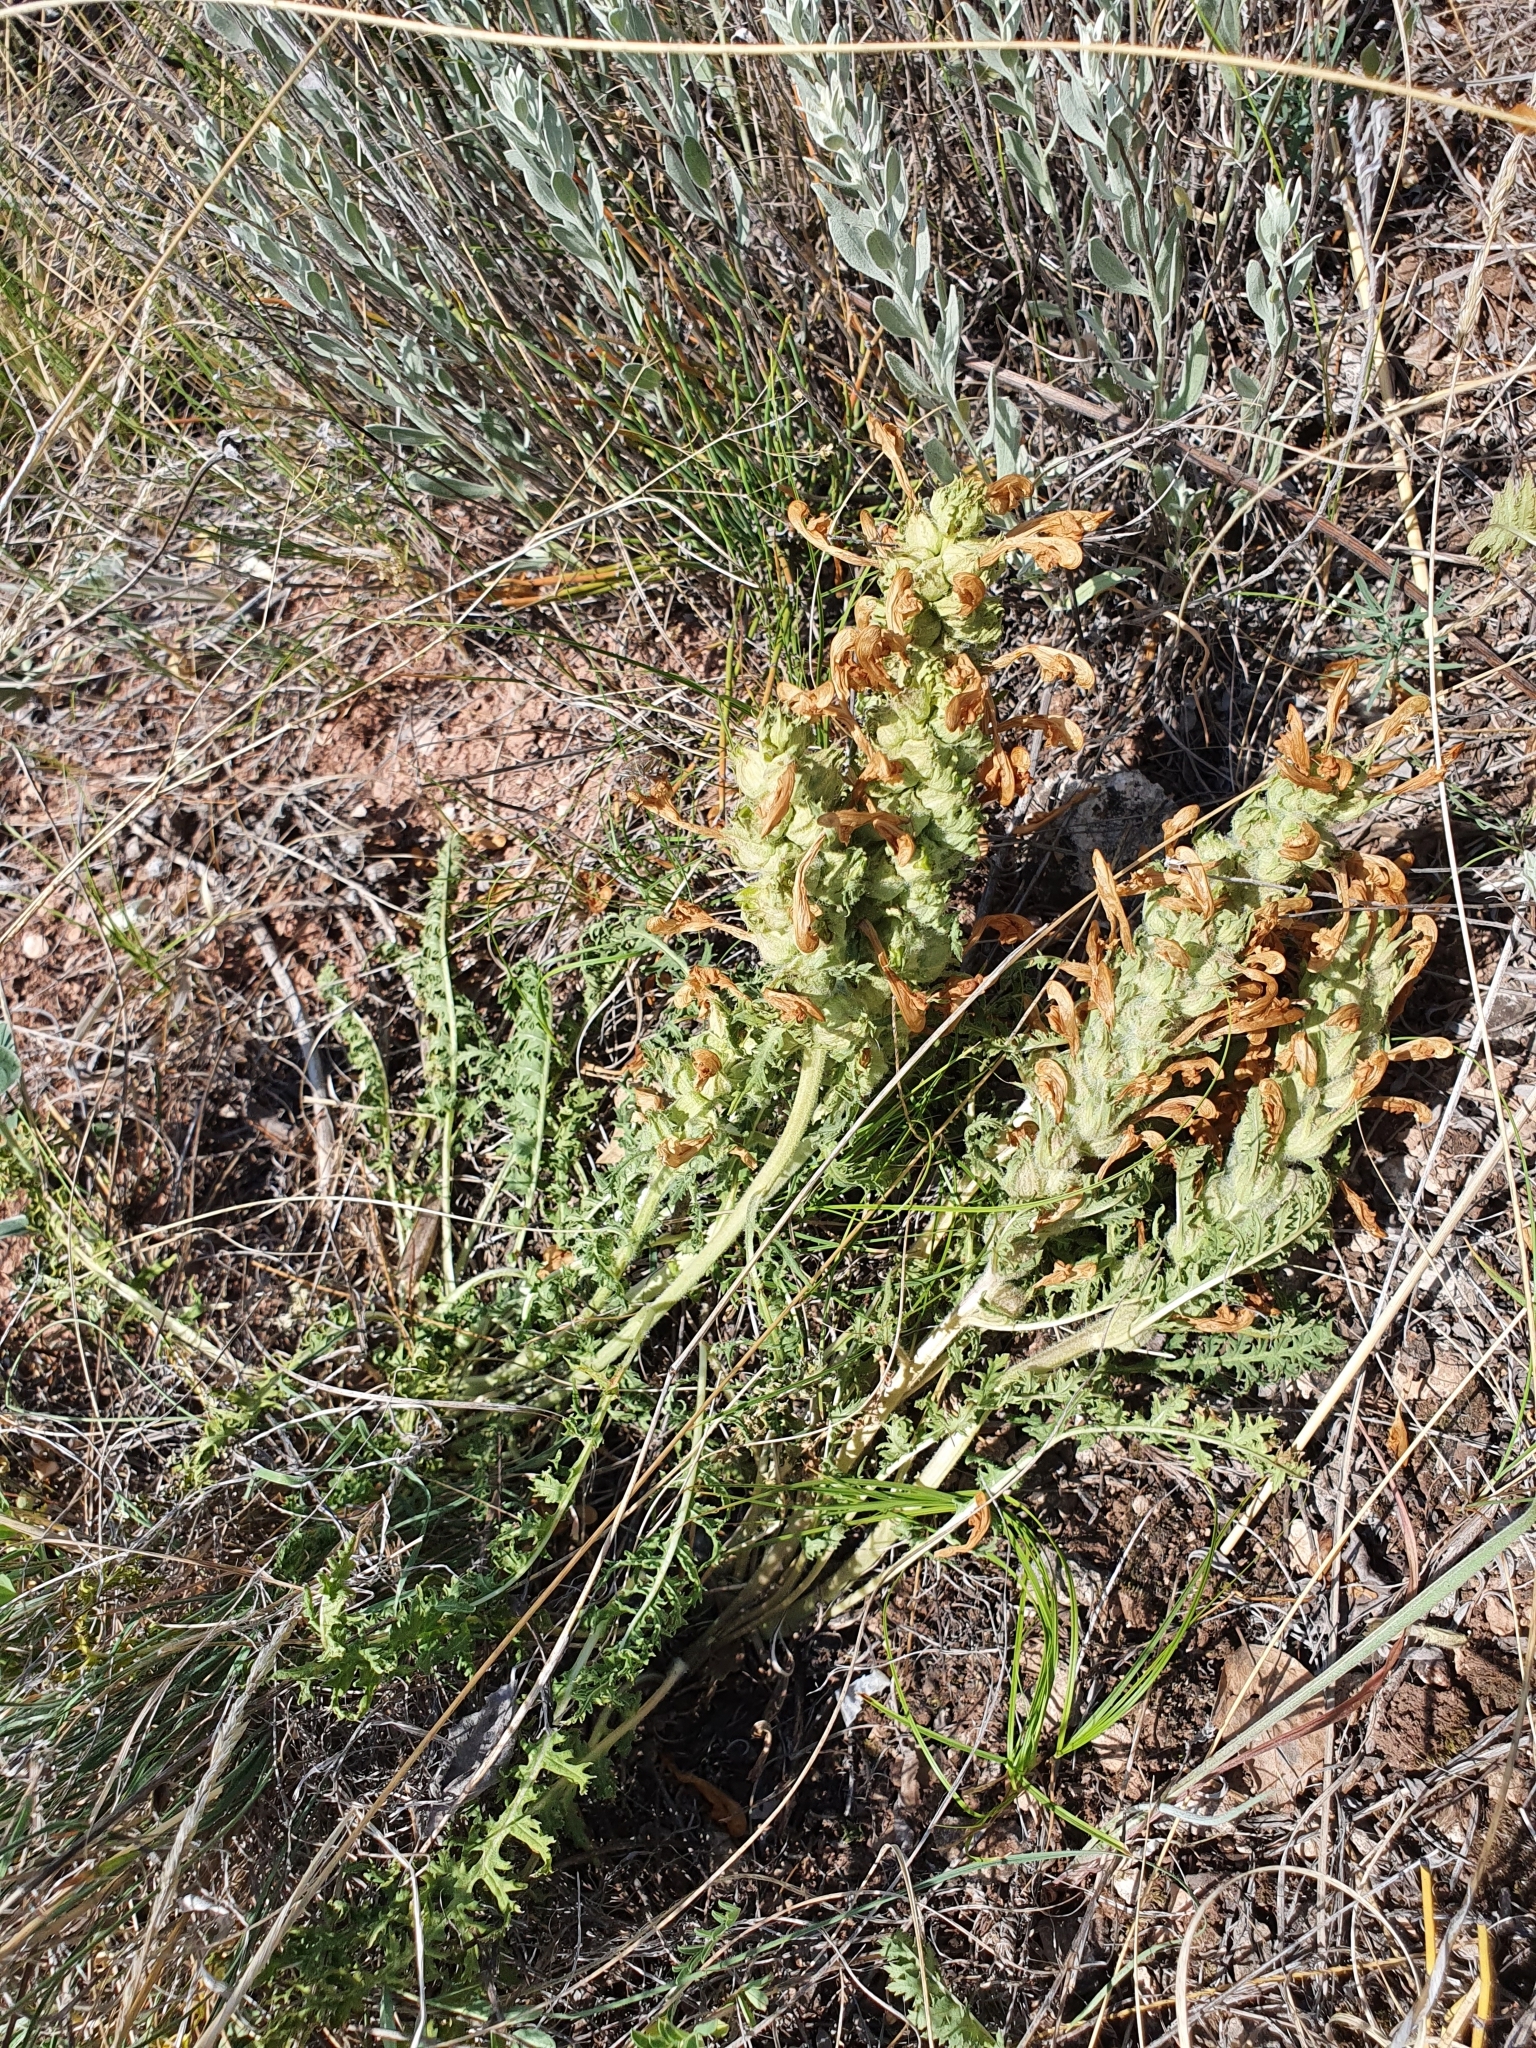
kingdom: Plantae
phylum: Tracheophyta
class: Magnoliopsida
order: Lamiales
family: Orobanchaceae
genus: Pedicularis
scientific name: Pedicularis physocalyx
